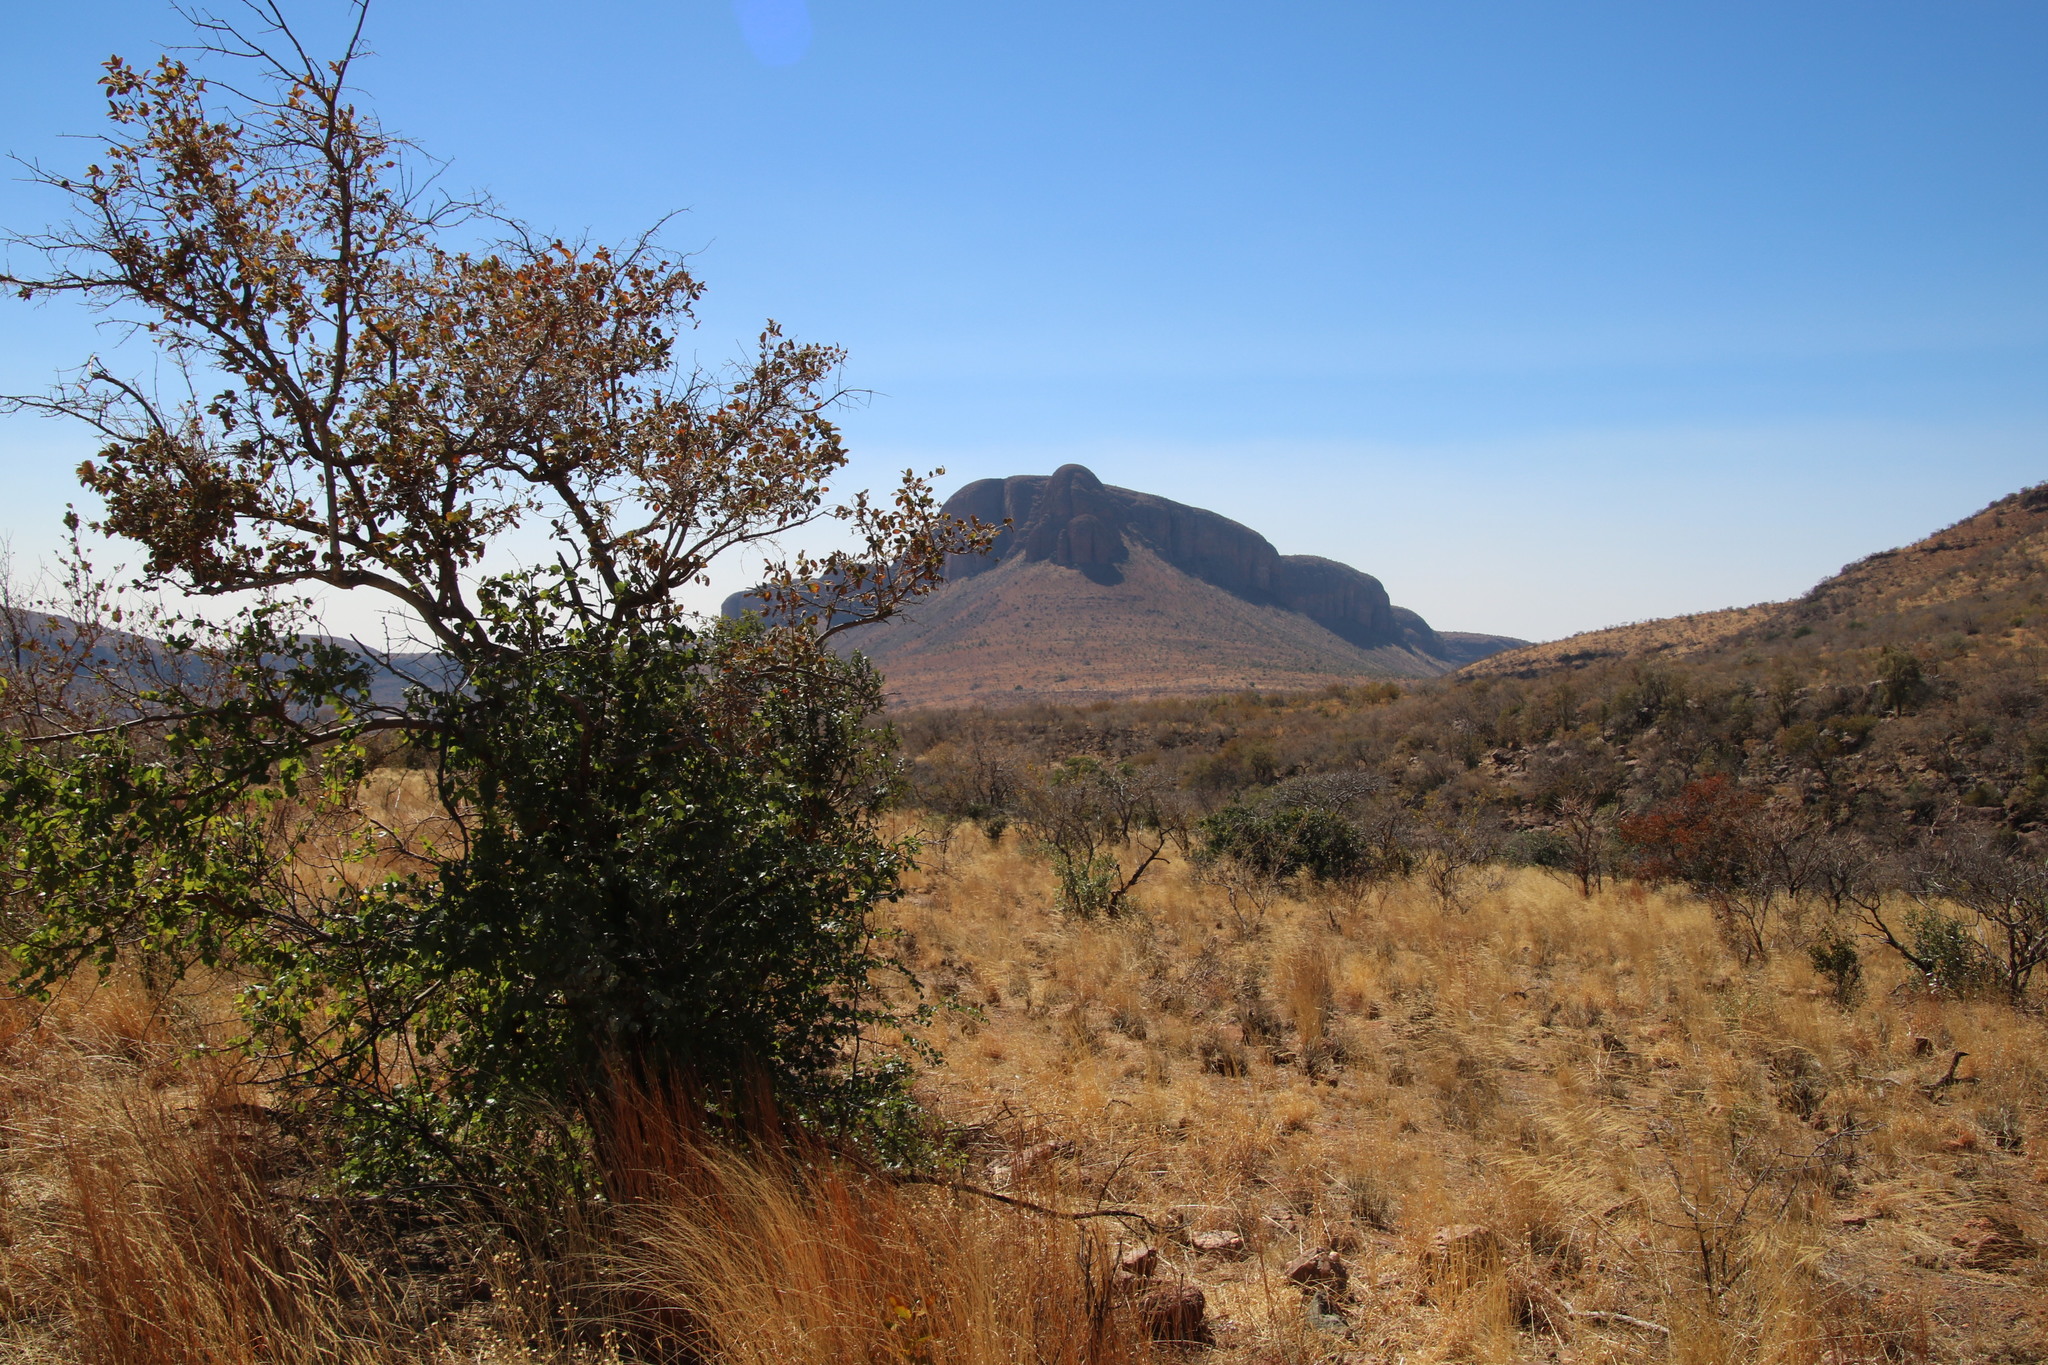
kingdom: Plantae
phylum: Tracheophyta
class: Magnoliopsida
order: Rosales
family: Rhamnaceae
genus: Ziziphus
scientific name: Ziziphus mucronata
